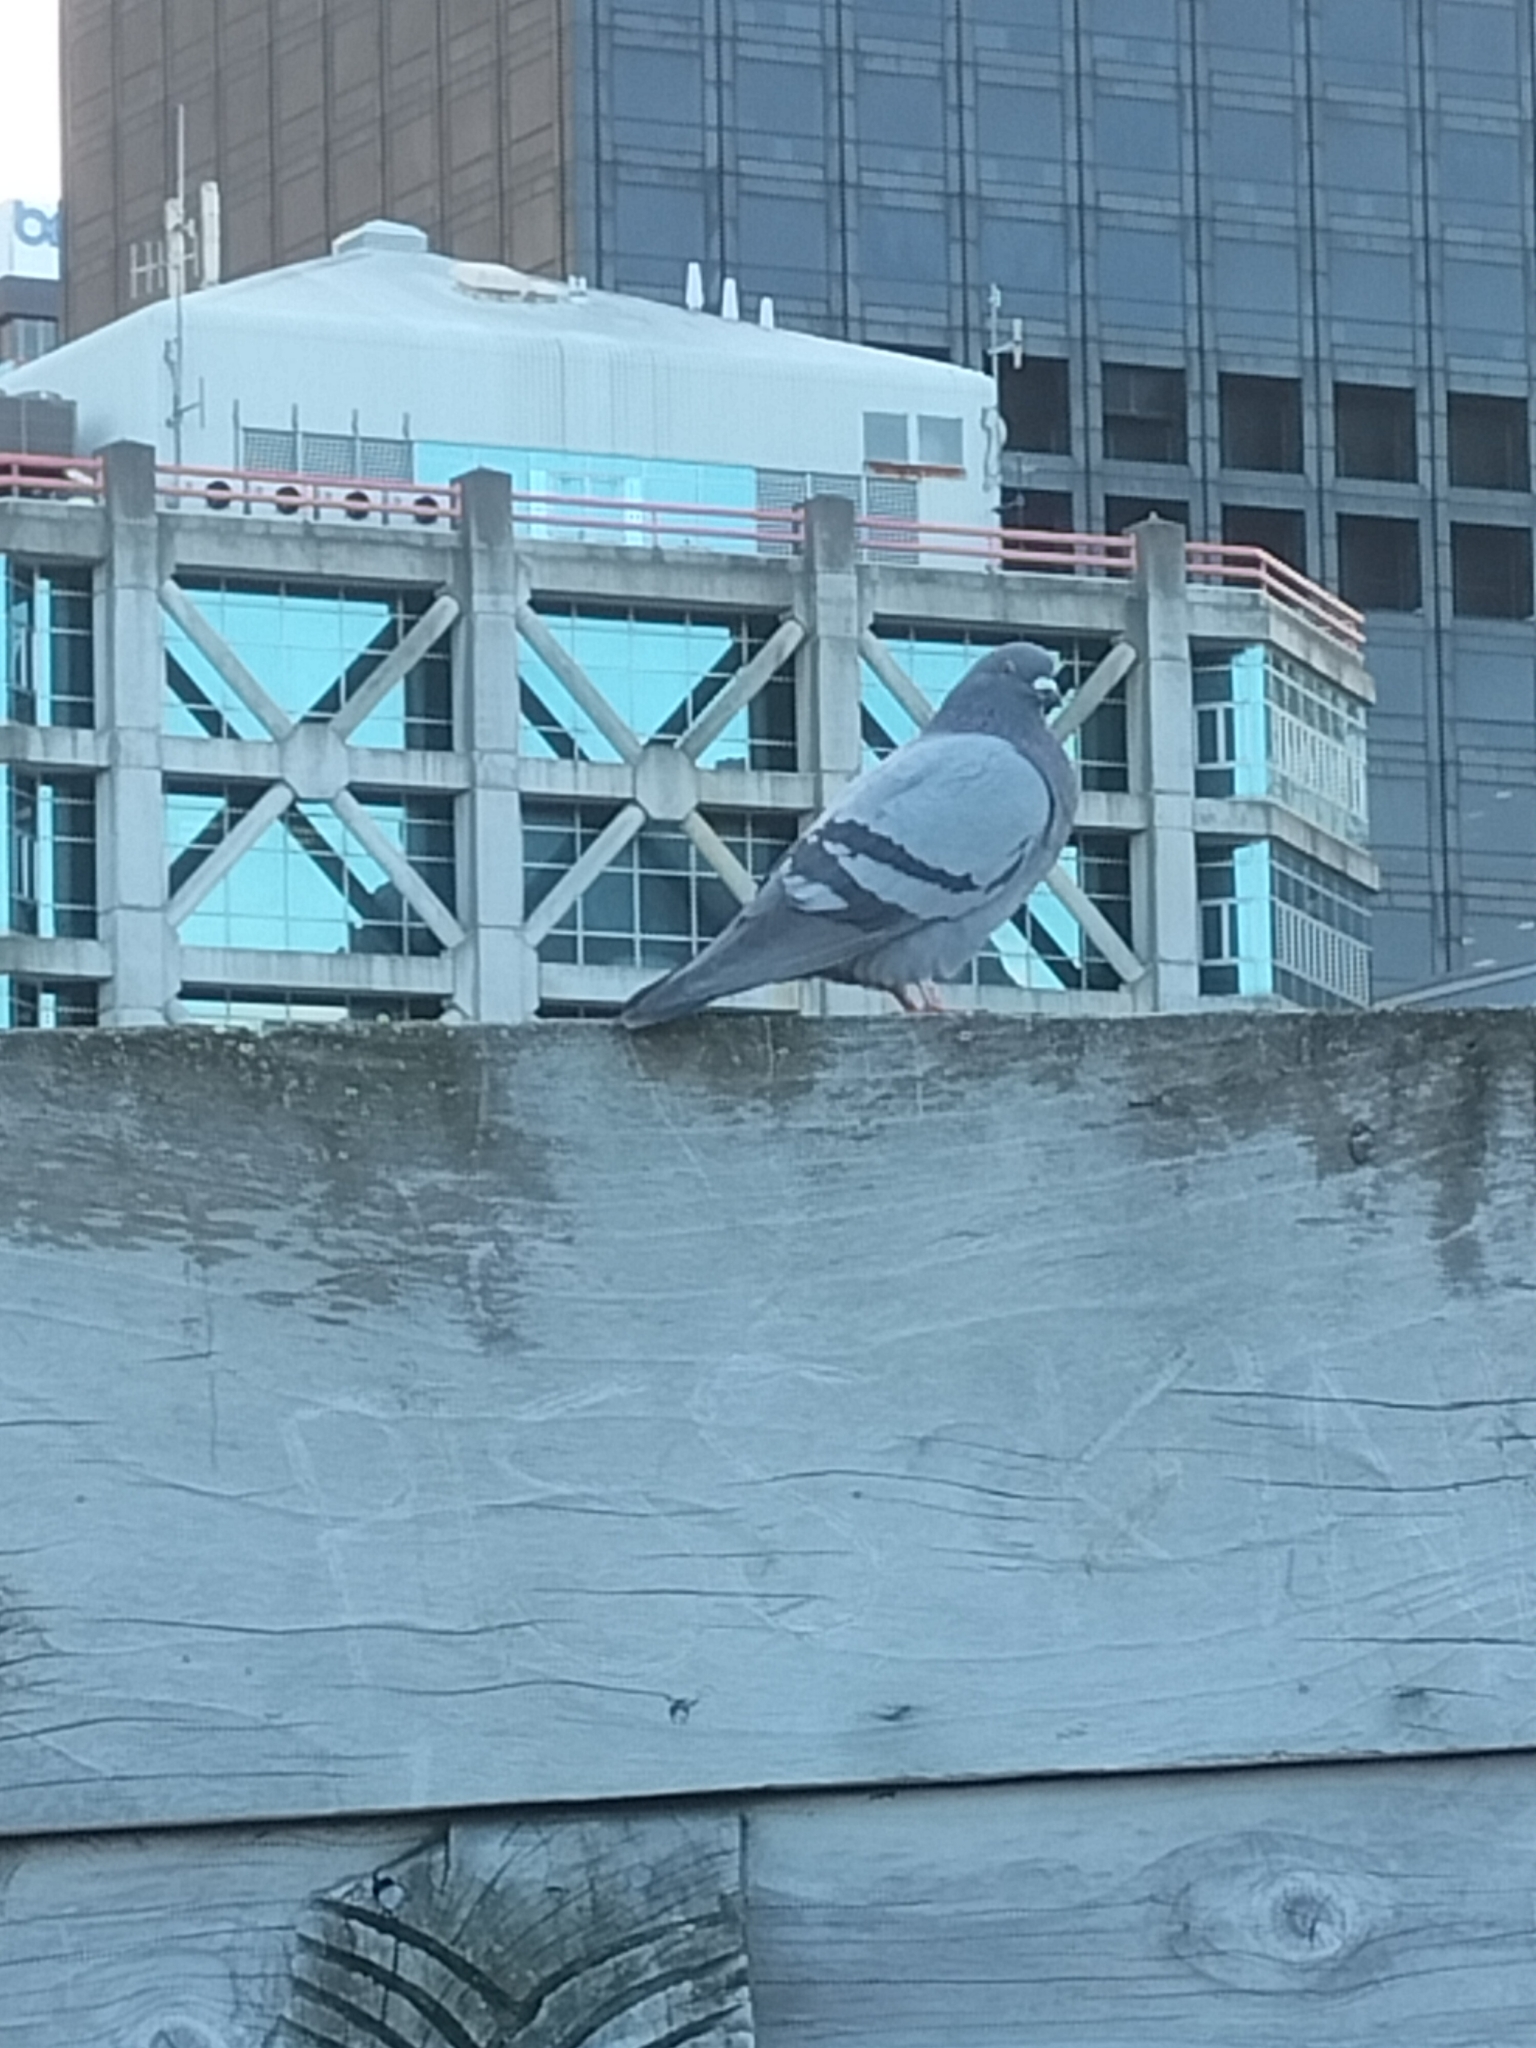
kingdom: Animalia
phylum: Chordata
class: Aves
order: Columbiformes
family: Columbidae
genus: Columba
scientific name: Columba livia
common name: Rock pigeon
